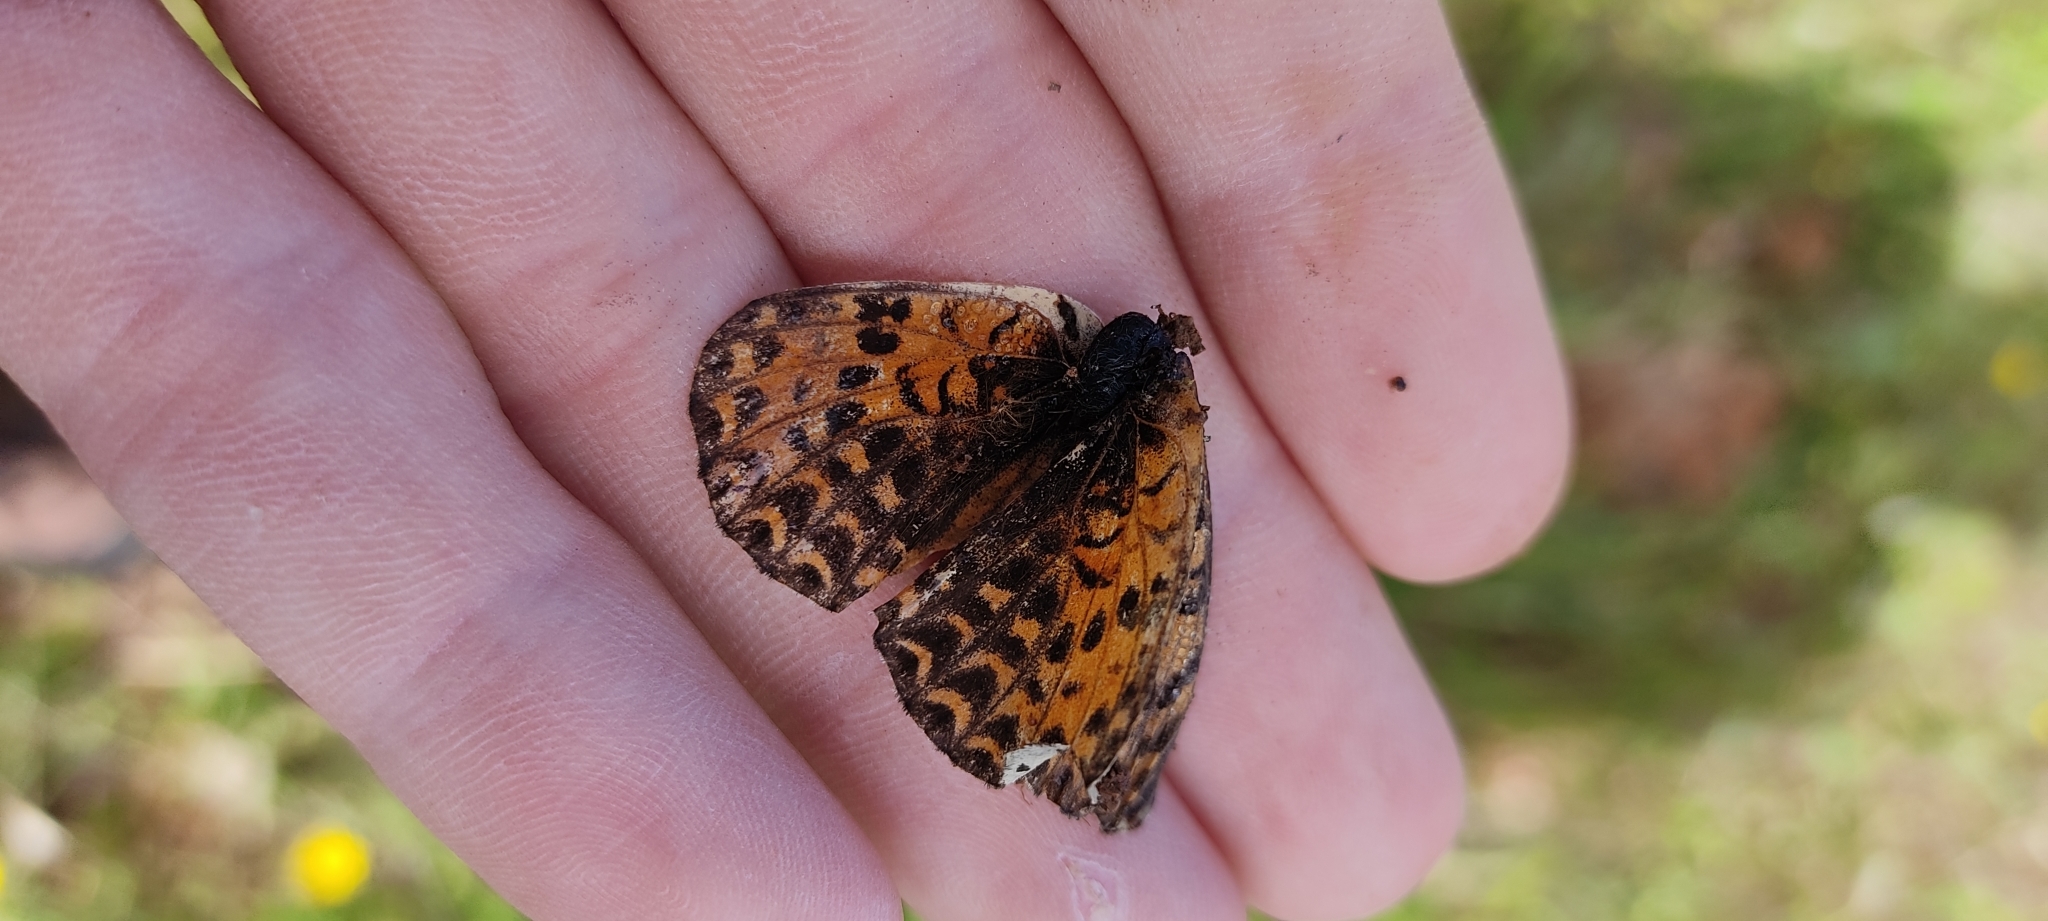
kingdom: Animalia
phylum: Arthropoda
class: Insecta
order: Lepidoptera
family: Nymphalidae
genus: Melitaea
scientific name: Melitaea didyma
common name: Spotted fritillary
